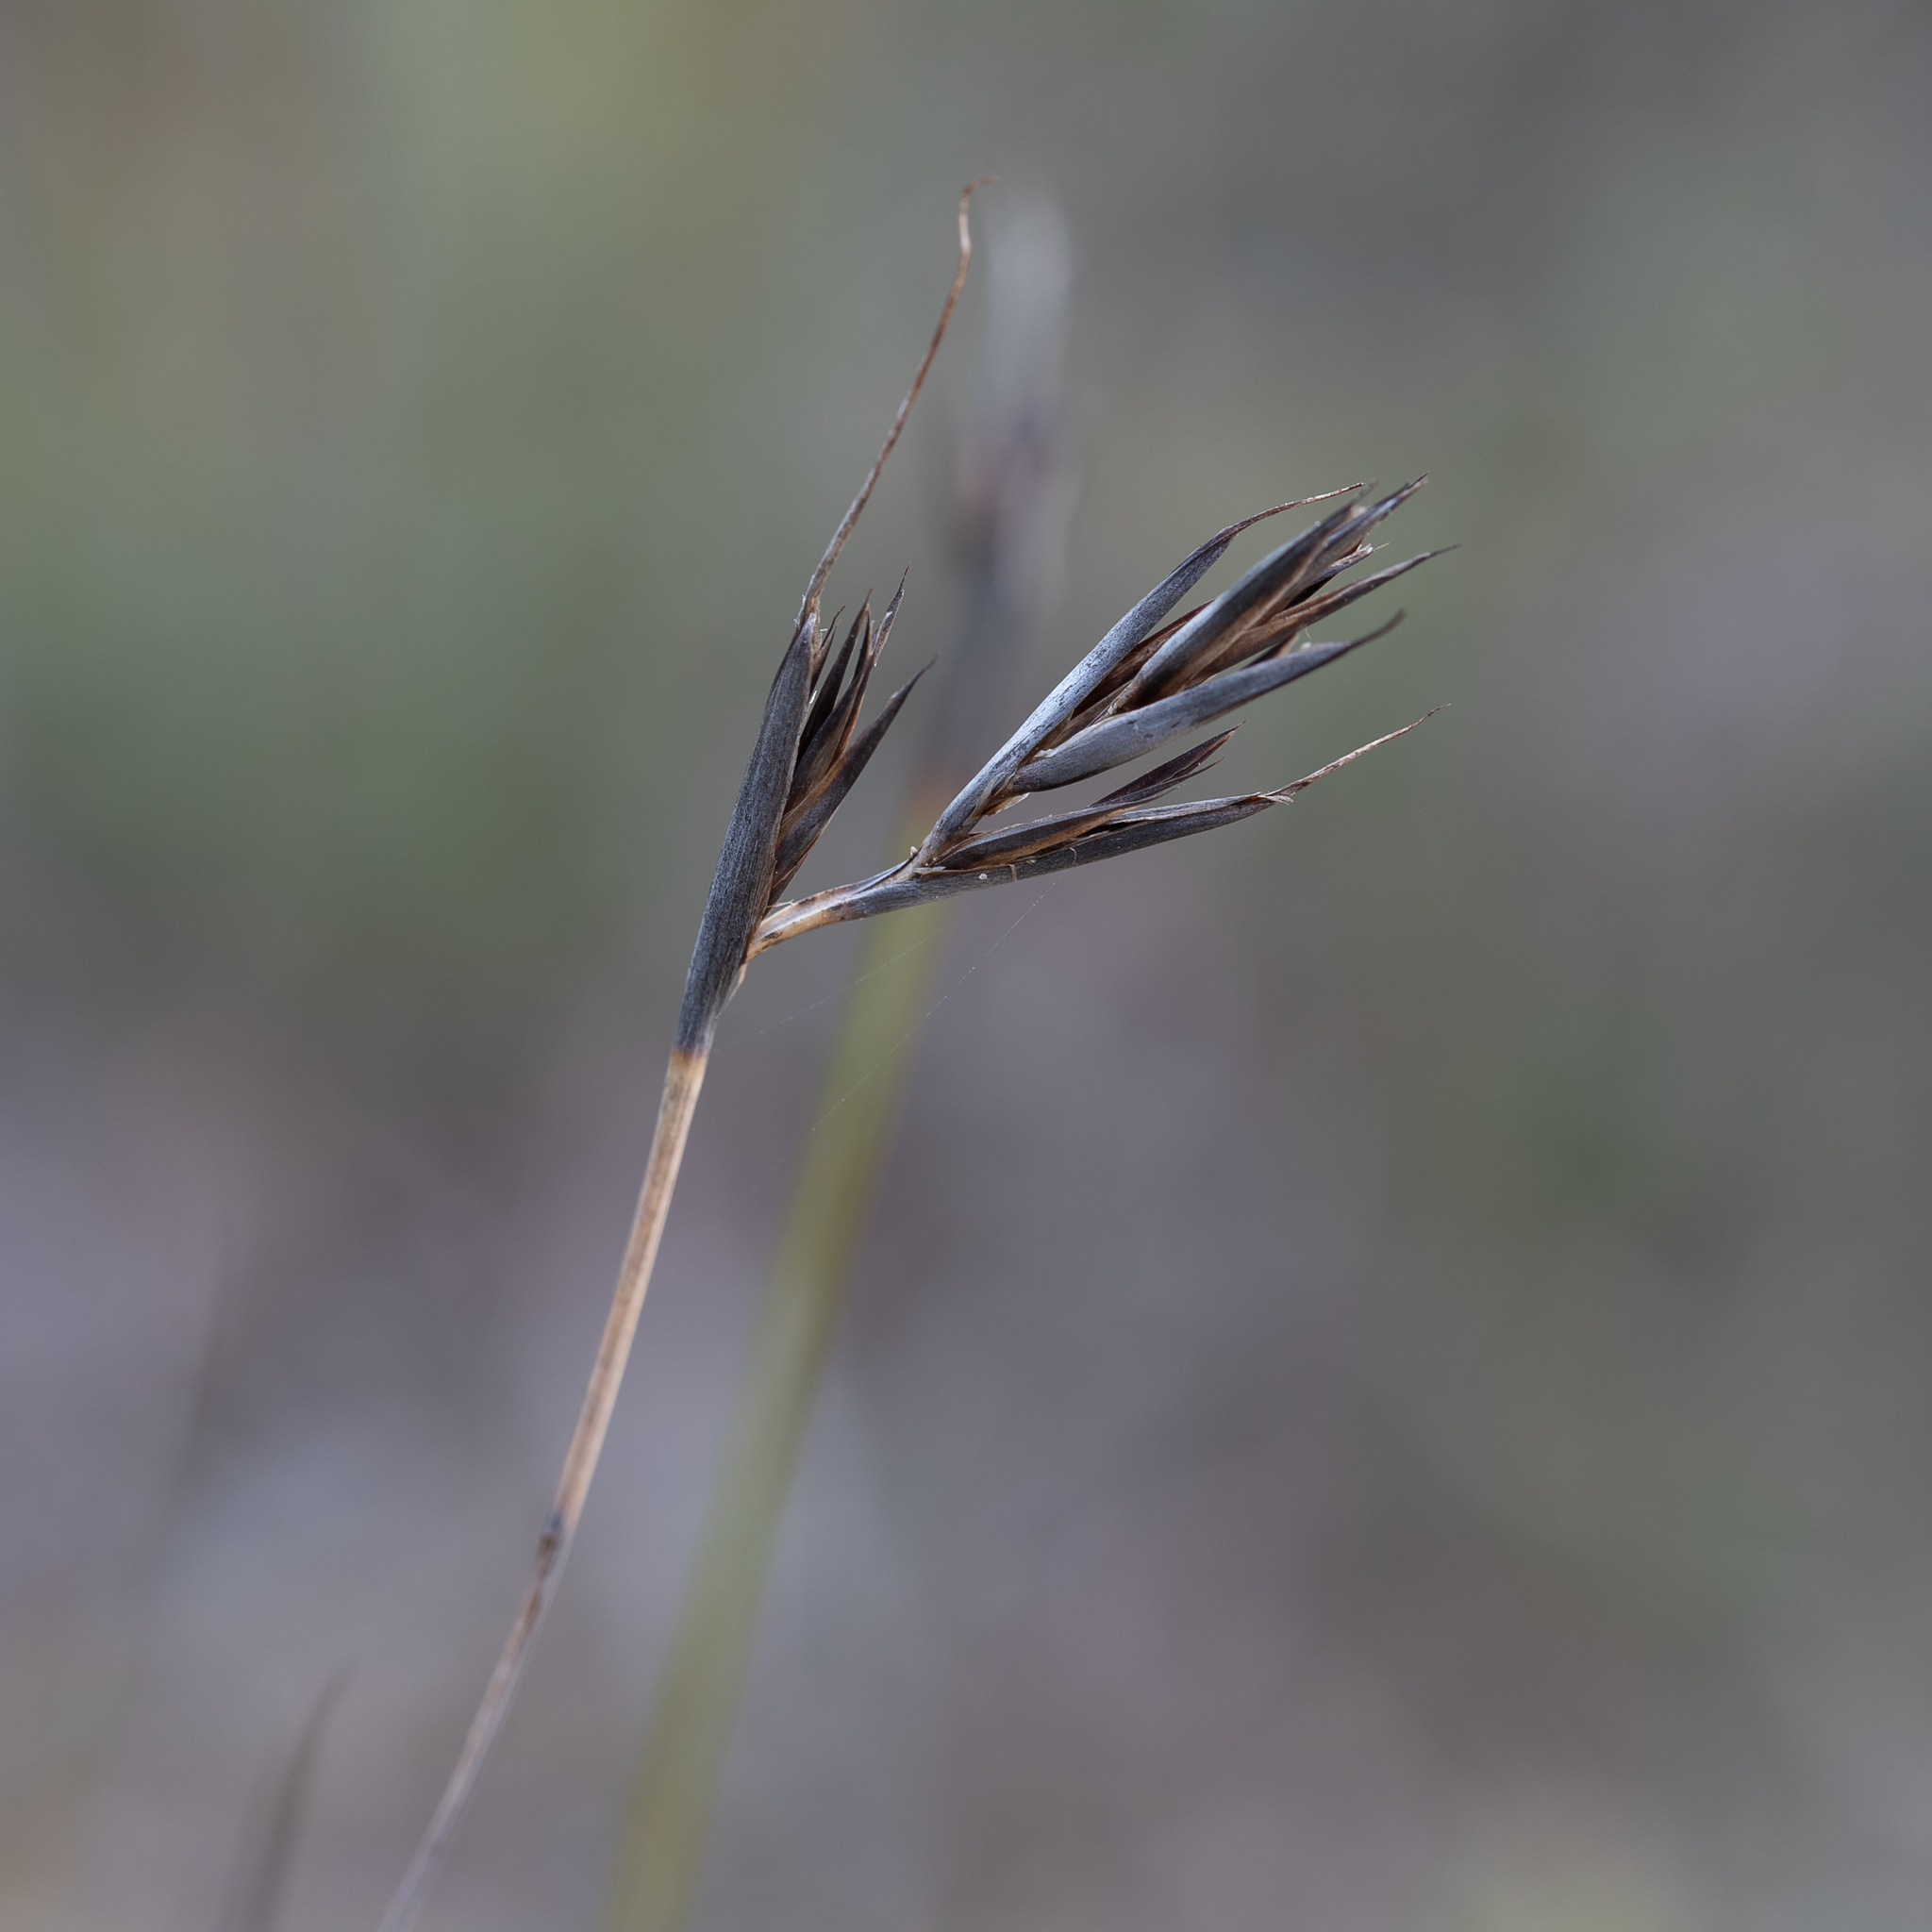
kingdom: Plantae
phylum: Tracheophyta
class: Liliopsida
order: Poales
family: Cyperaceae
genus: Lepidosperma
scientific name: Lepidosperma carphoides
